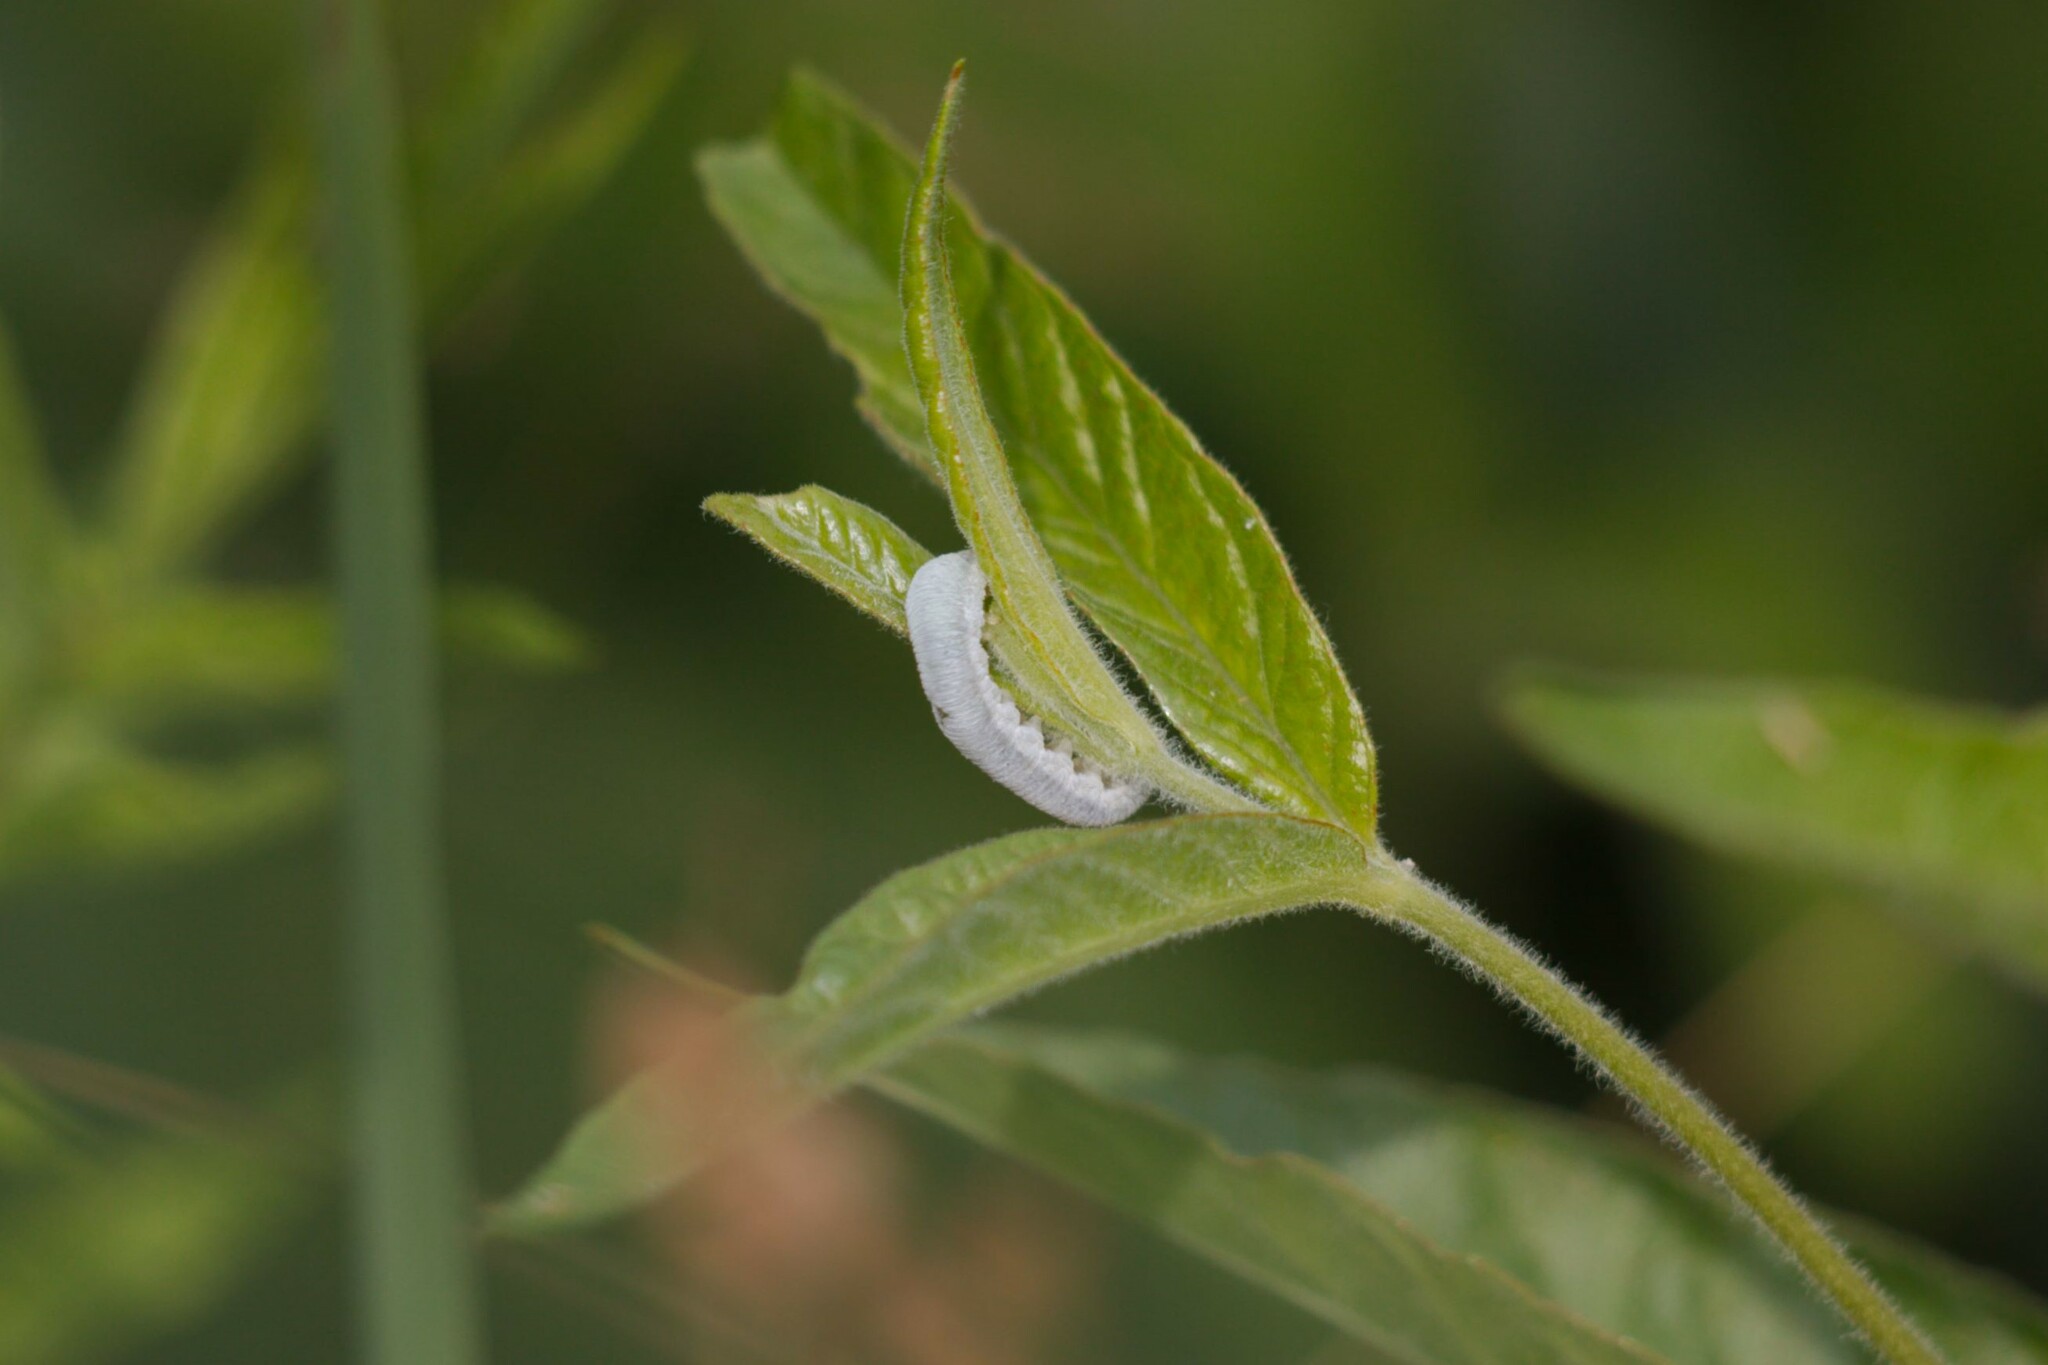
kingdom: Animalia
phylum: Arthropoda
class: Insecta
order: Hymenoptera
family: Tenthredinidae
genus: Monostegia
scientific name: Monostegia abdominalis
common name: Tenthredid wasp
